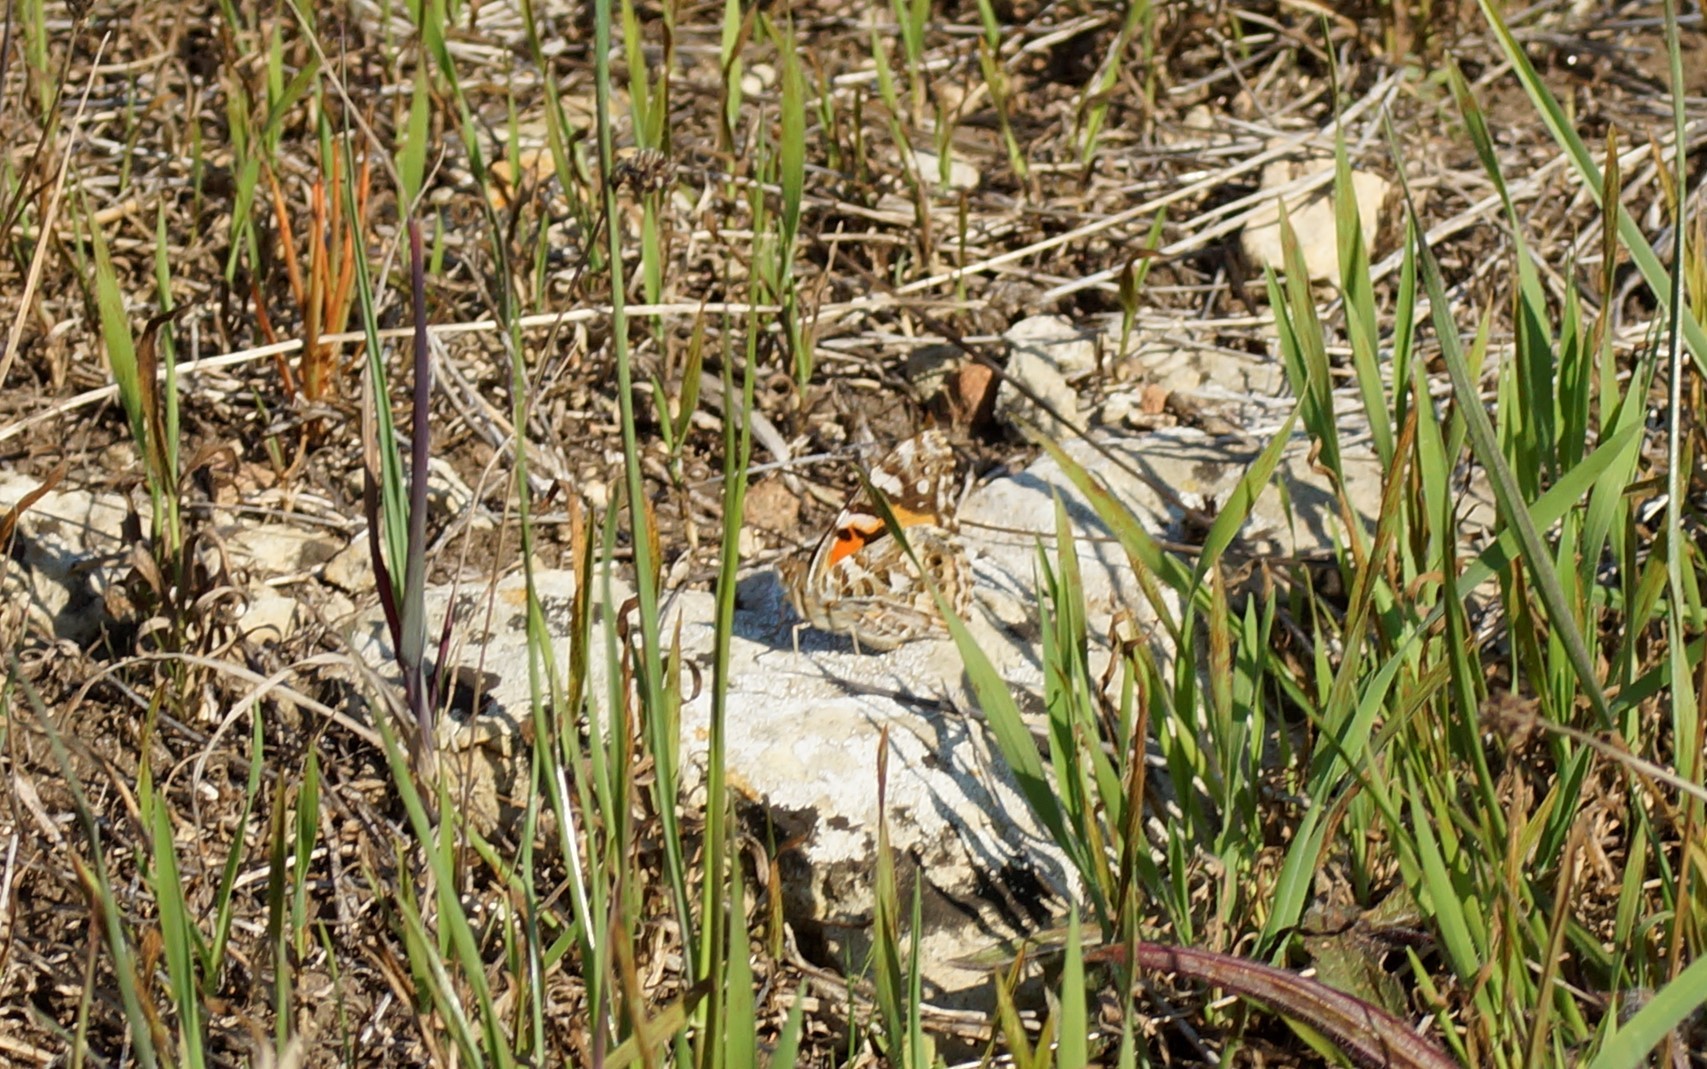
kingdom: Animalia
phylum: Arthropoda
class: Insecta
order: Lepidoptera
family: Nymphalidae
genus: Vanessa
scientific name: Vanessa kershawi
